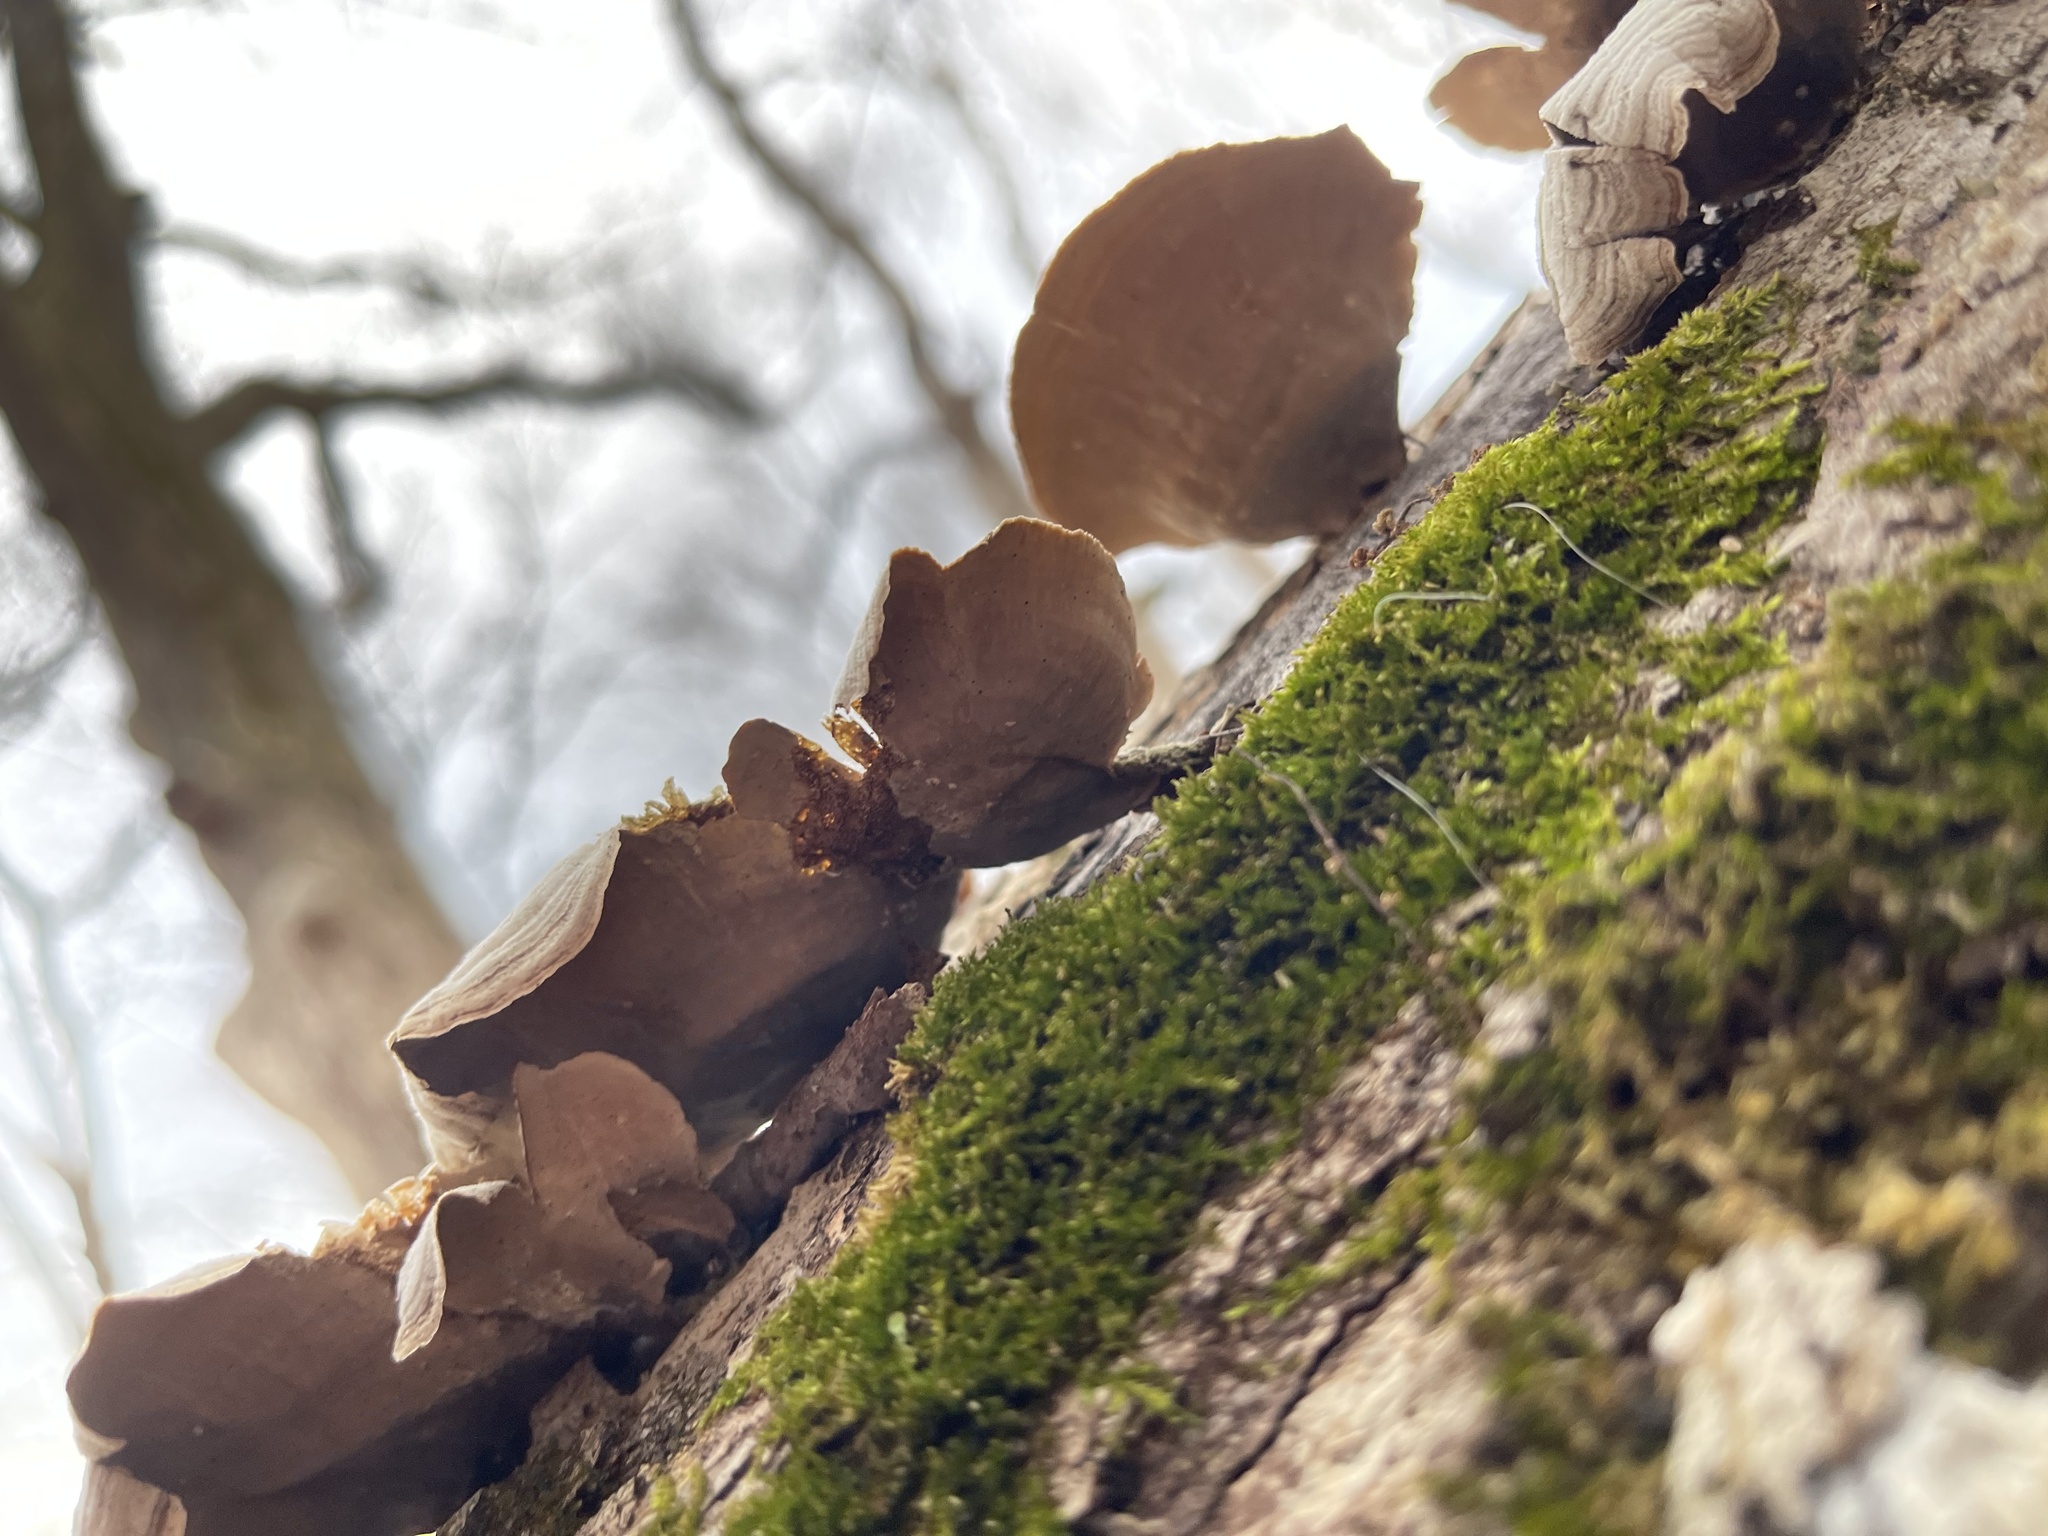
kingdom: Fungi
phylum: Basidiomycota
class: Agaricomycetes
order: Russulales
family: Stereaceae
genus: Stereum
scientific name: Stereum ostrea
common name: False turkeytail
